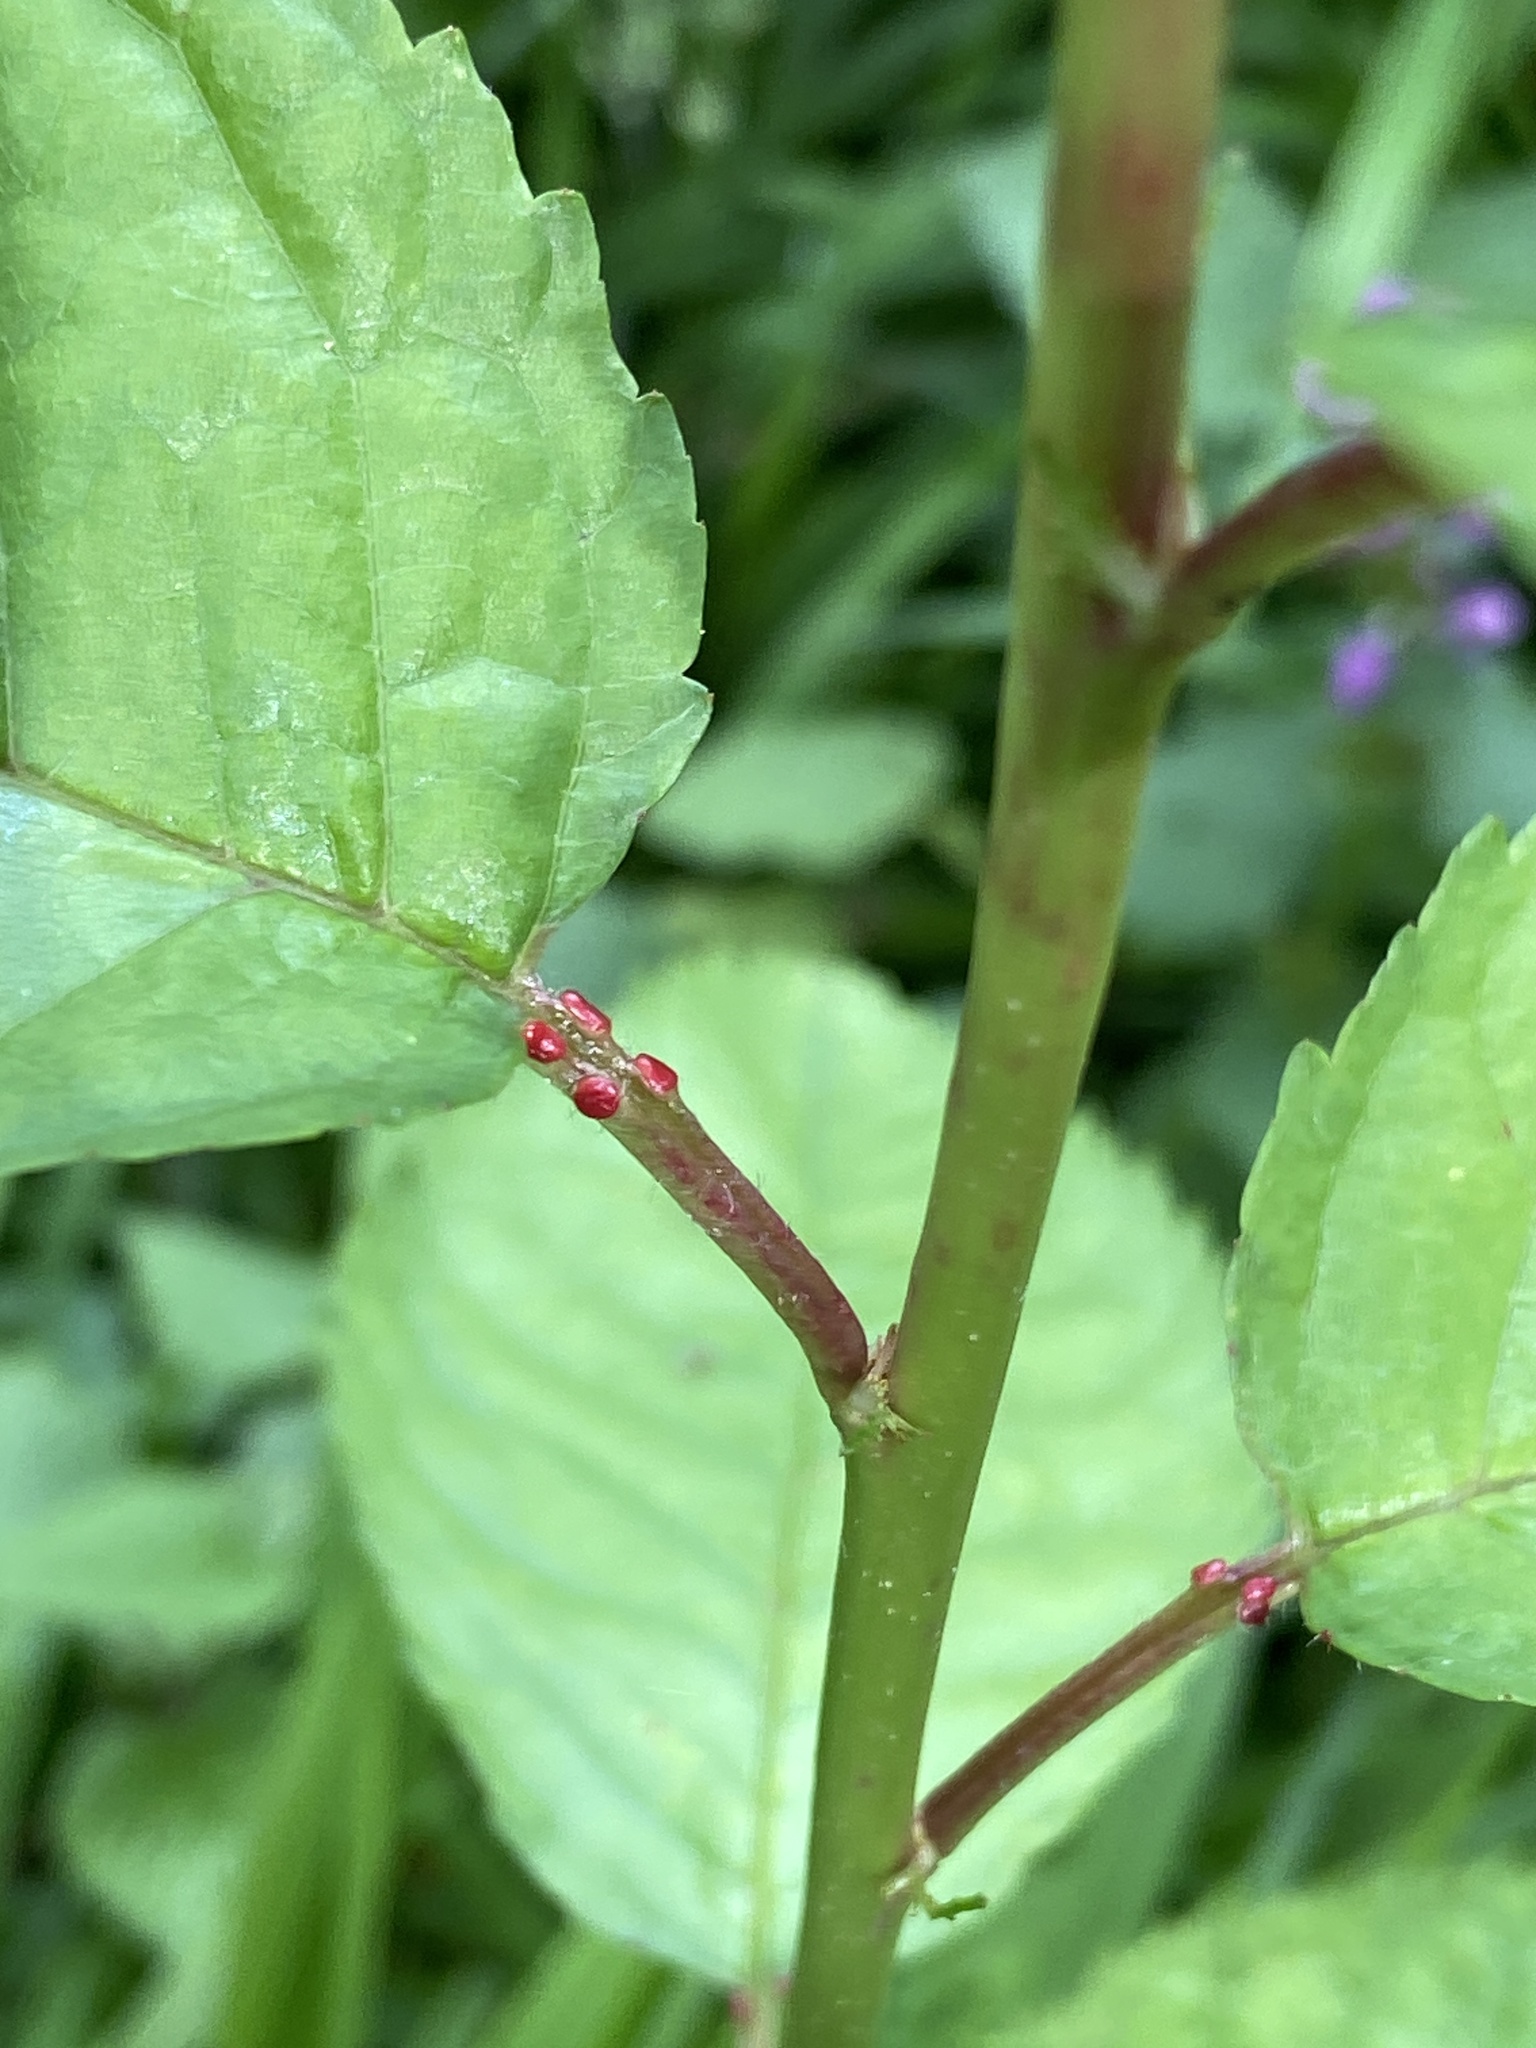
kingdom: Plantae
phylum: Tracheophyta
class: Magnoliopsida
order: Rosales
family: Rosaceae
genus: Prunus
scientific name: Prunus avium
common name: Sweet cherry
